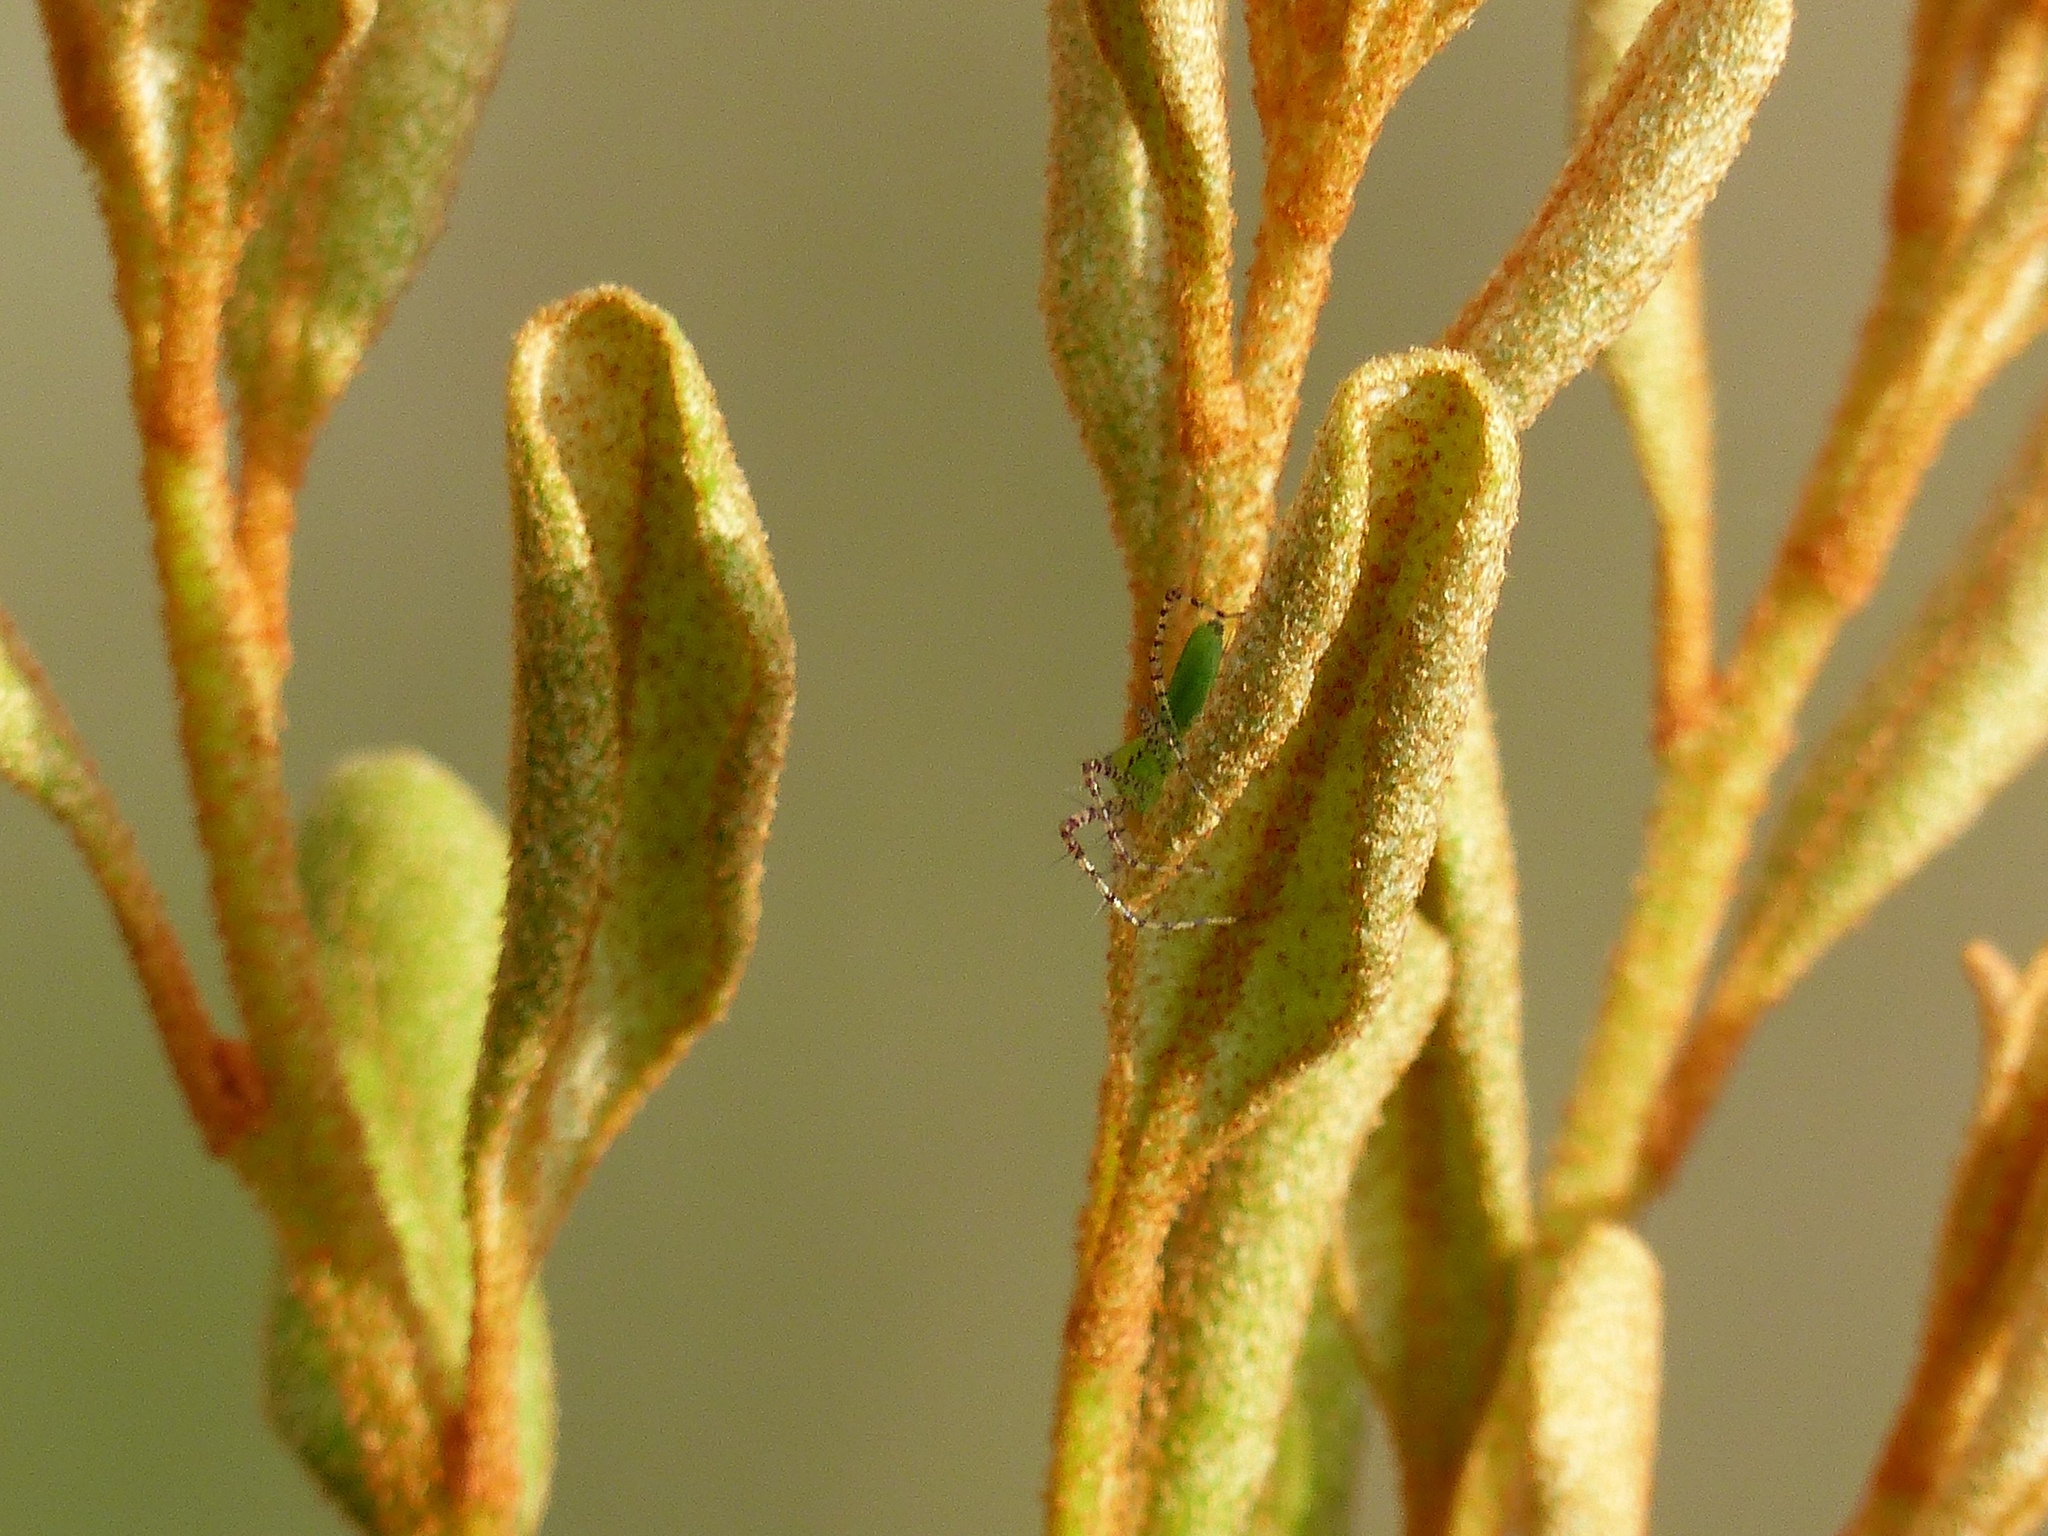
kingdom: Animalia
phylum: Arthropoda
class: Arachnida
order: Araneae
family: Oxyopidae
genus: Peucetia
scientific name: Peucetia viridans
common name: Lynx spiders
